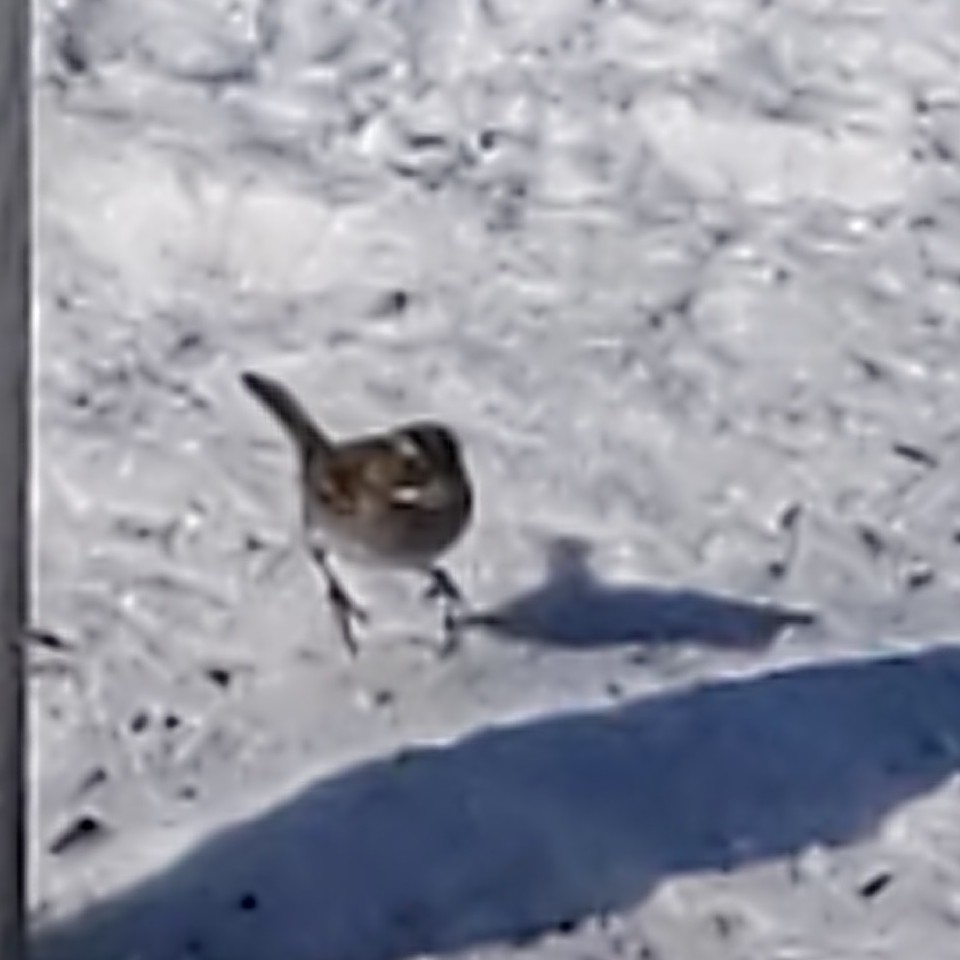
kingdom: Animalia
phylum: Chordata
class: Aves
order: Passeriformes
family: Passerellidae
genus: Zonotrichia
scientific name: Zonotrichia albicollis
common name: White-throated sparrow
